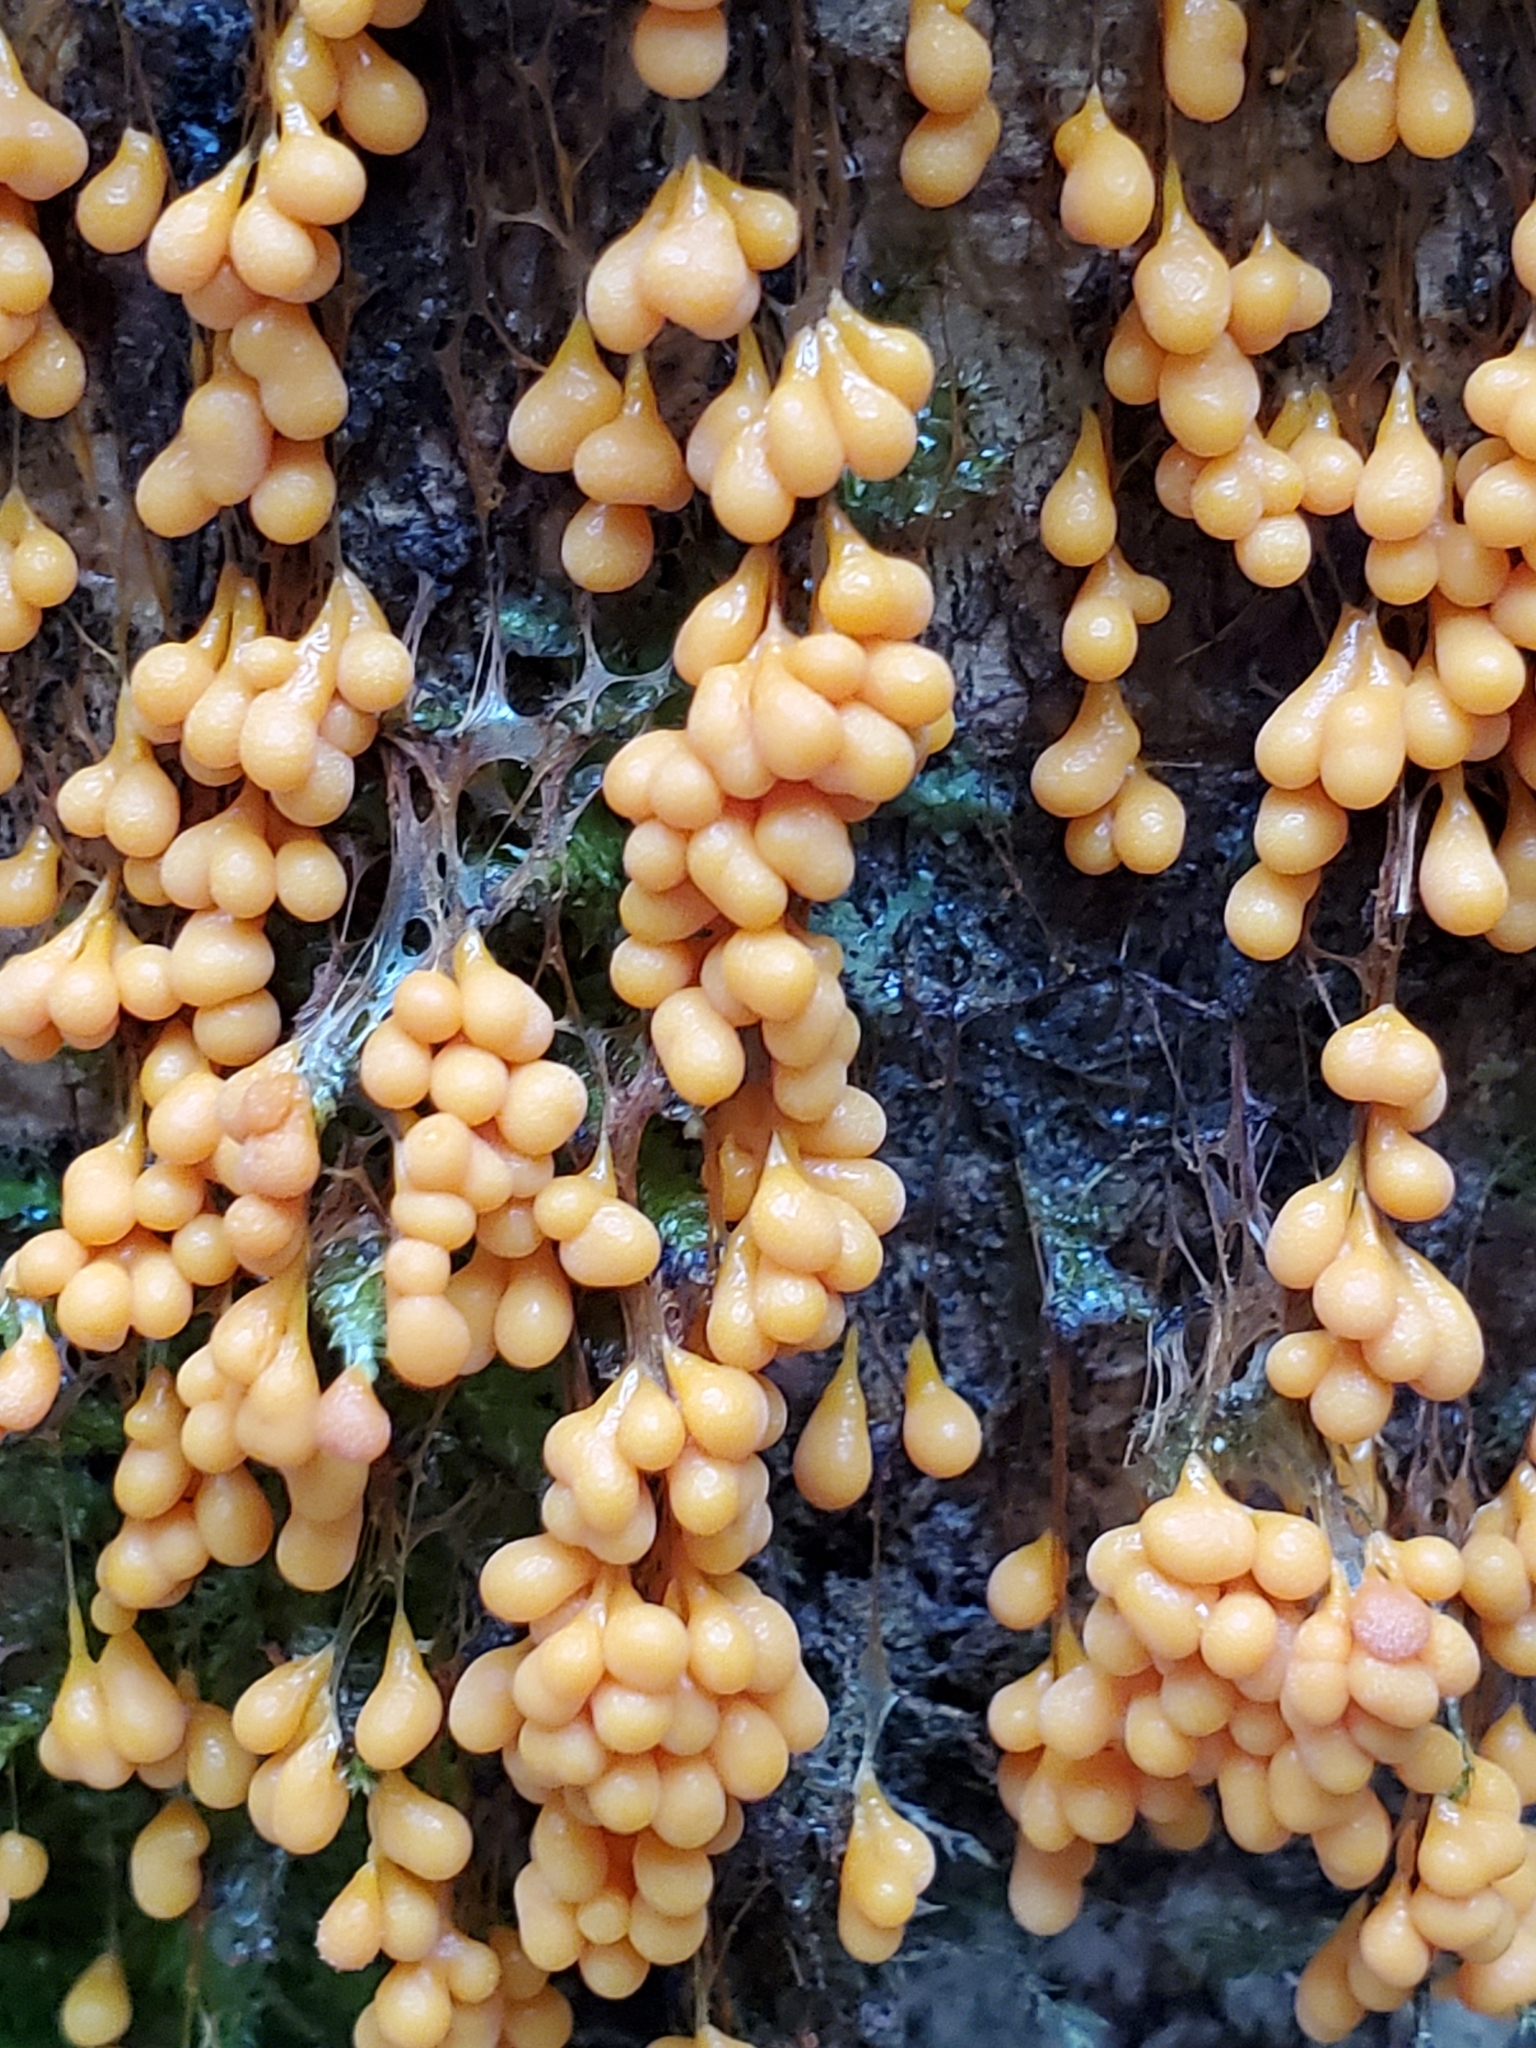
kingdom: Protozoa
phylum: Mycetozoa
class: Myxomycetes
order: Physarales
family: Physaraceae
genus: Badhamia
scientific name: Badhamia utricularis
